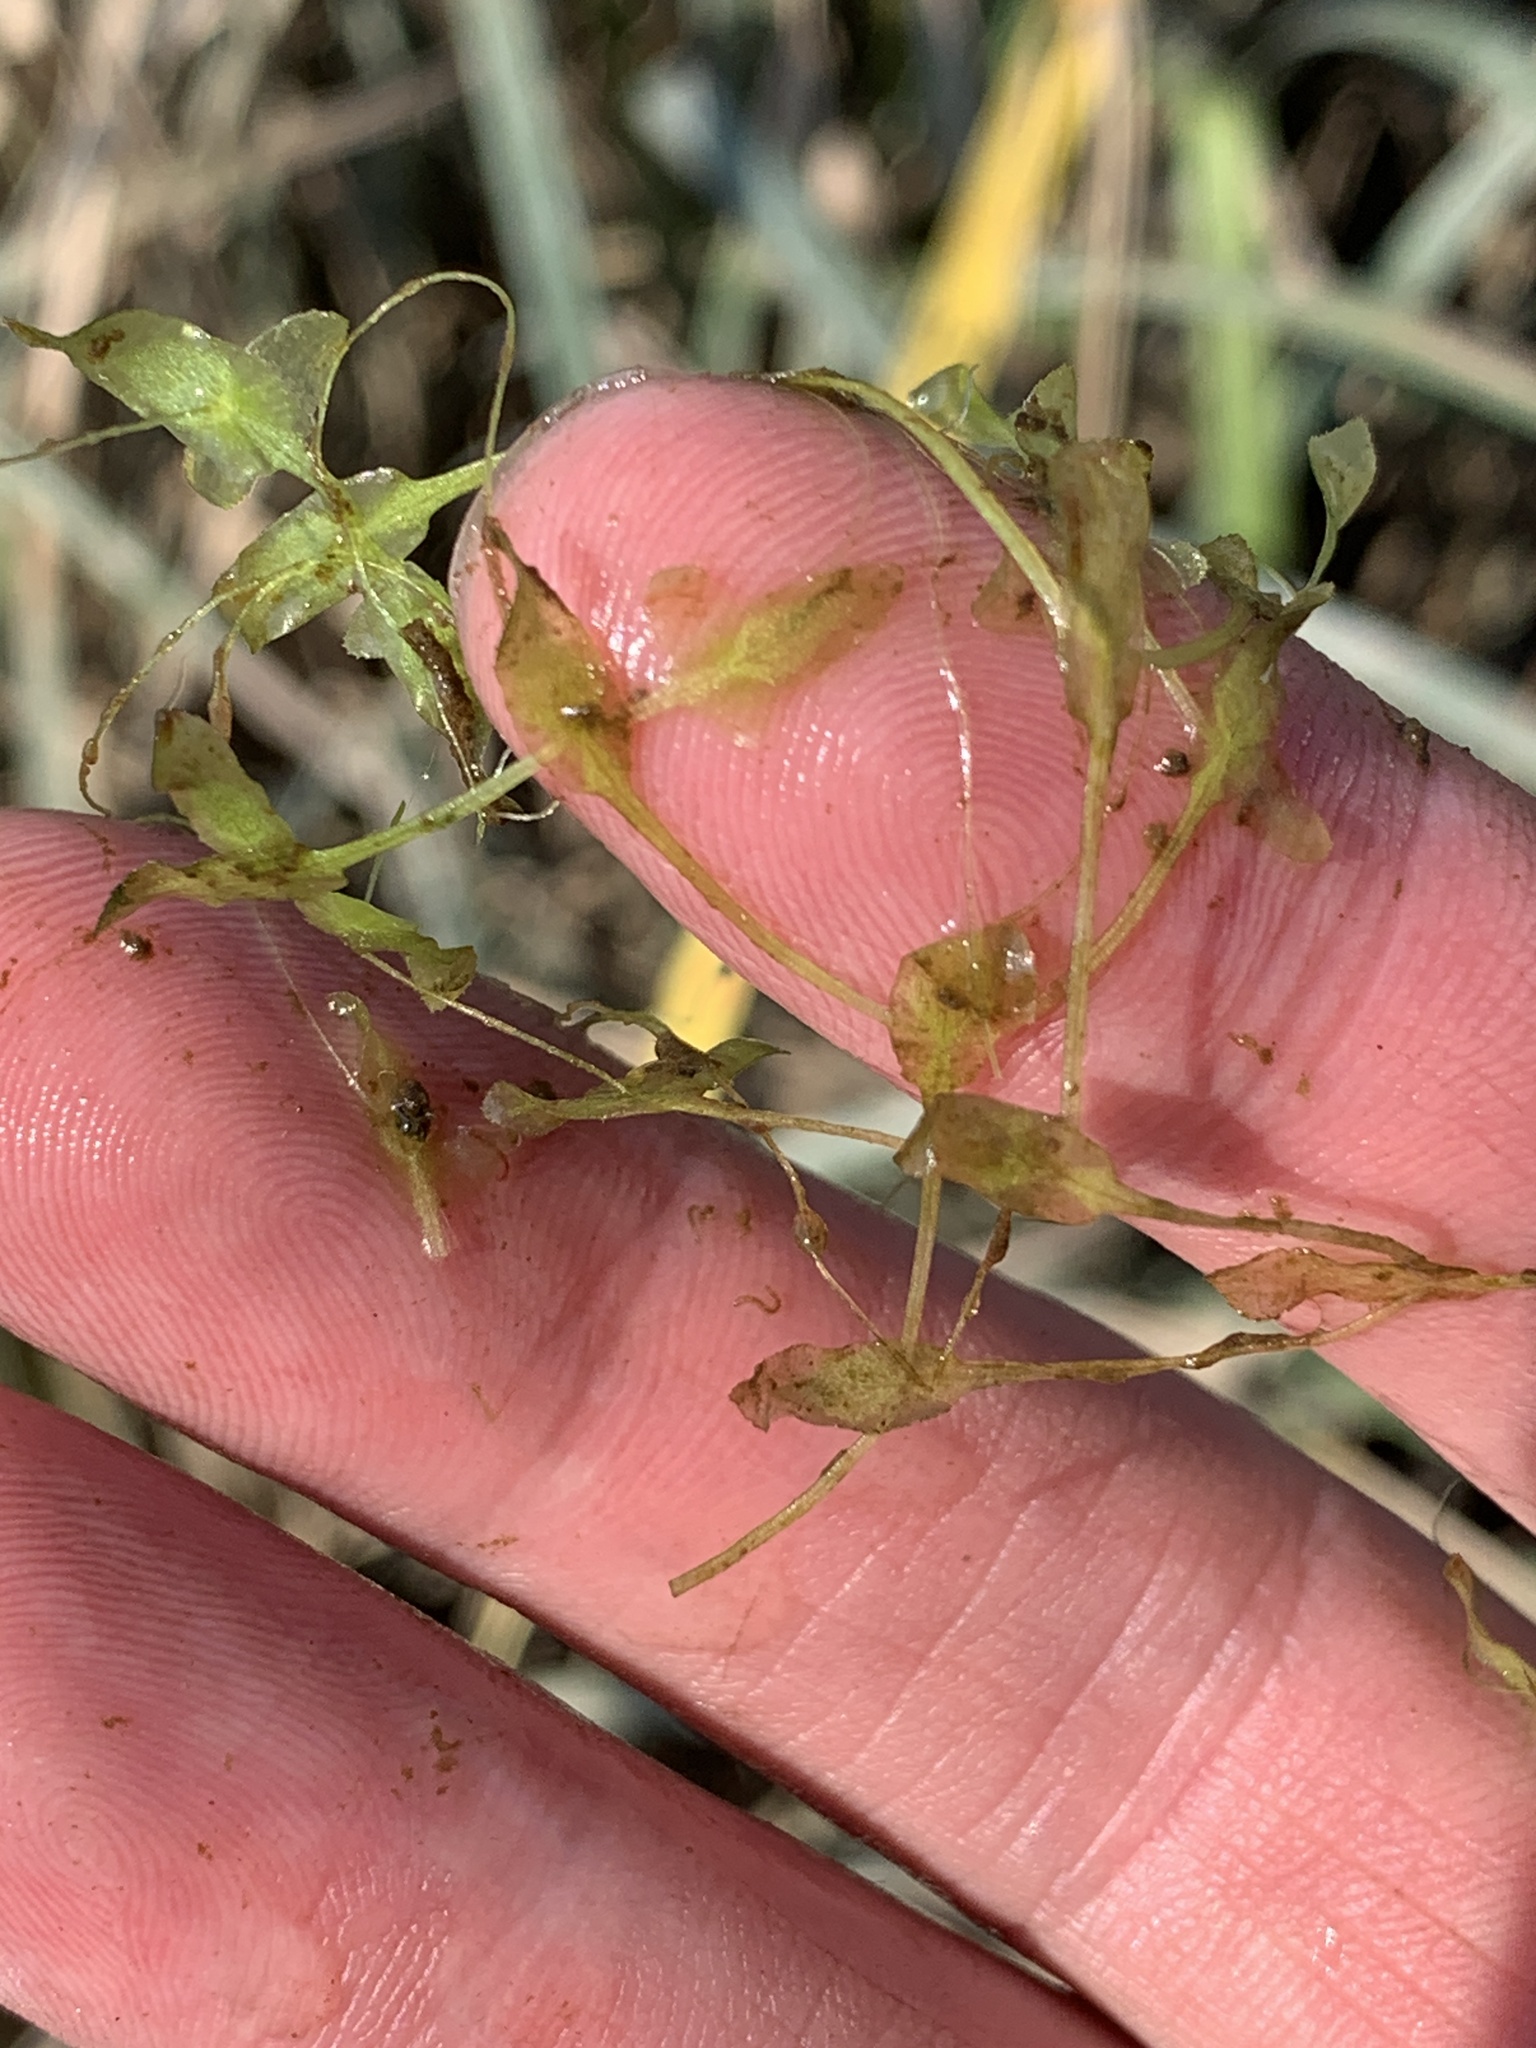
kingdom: Plantae
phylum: Tracheophyta
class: Liliopsida
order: Alismatales
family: Araceae
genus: Lemna
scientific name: Lemna trisulca
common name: Ivy-leaved duckweed
